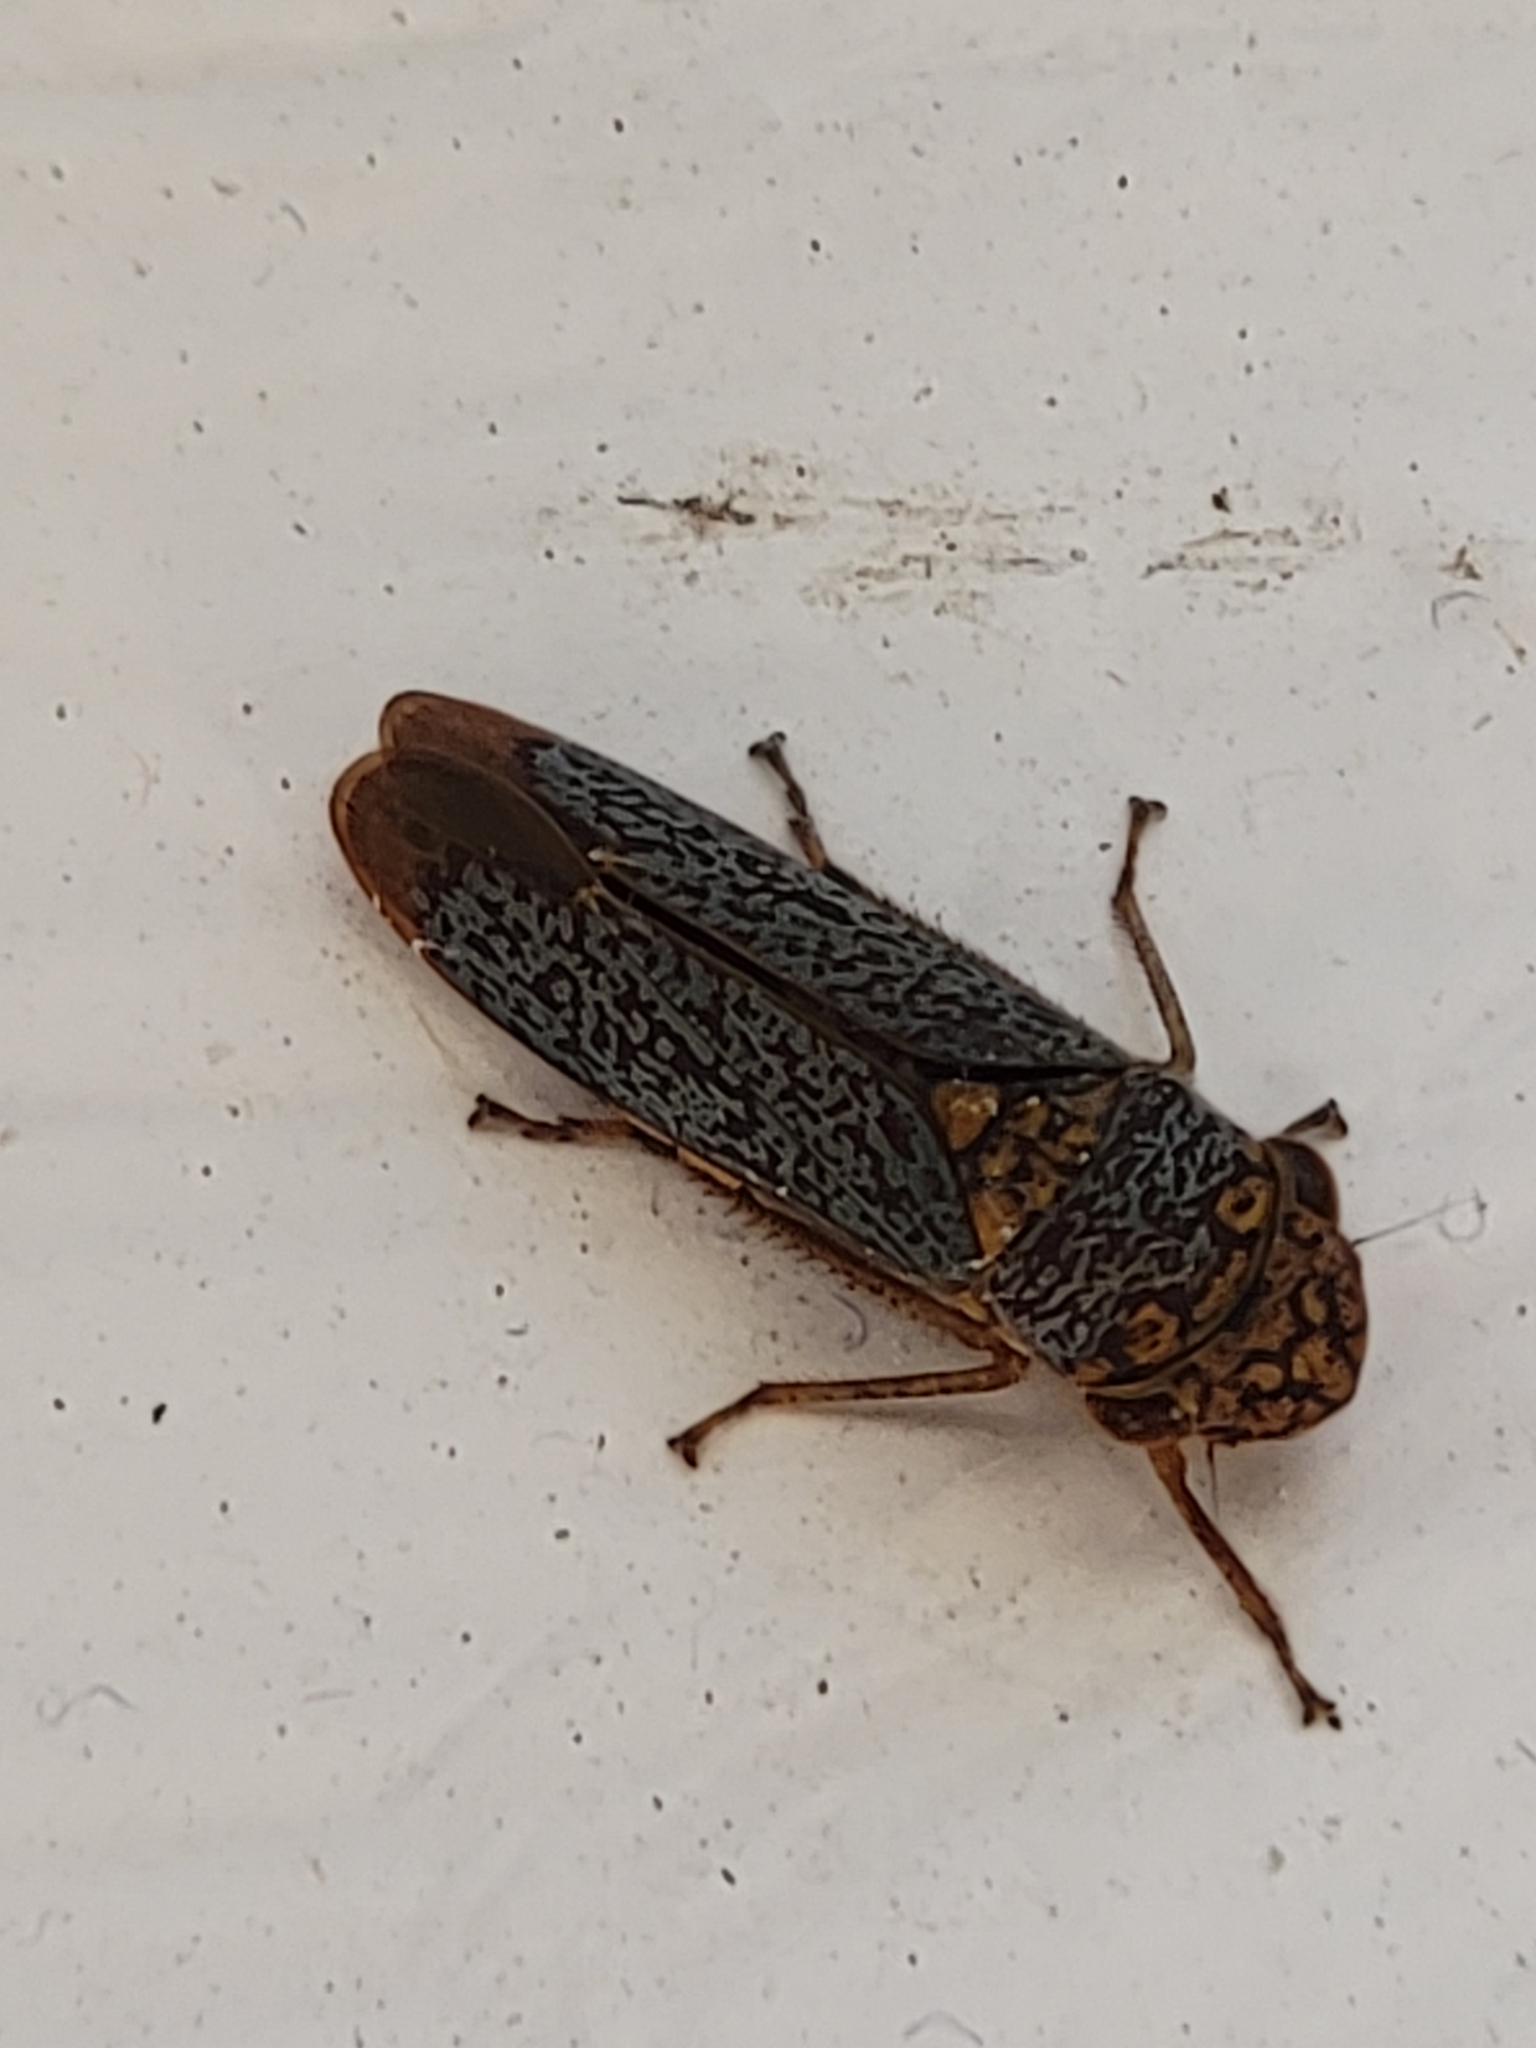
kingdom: Animalia
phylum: Arthropoda
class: Insecta
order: Hemiptera
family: Cicadellidae
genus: Oncometopia
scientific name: Oncometopia orbona
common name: Broad-headed sharpshooter
